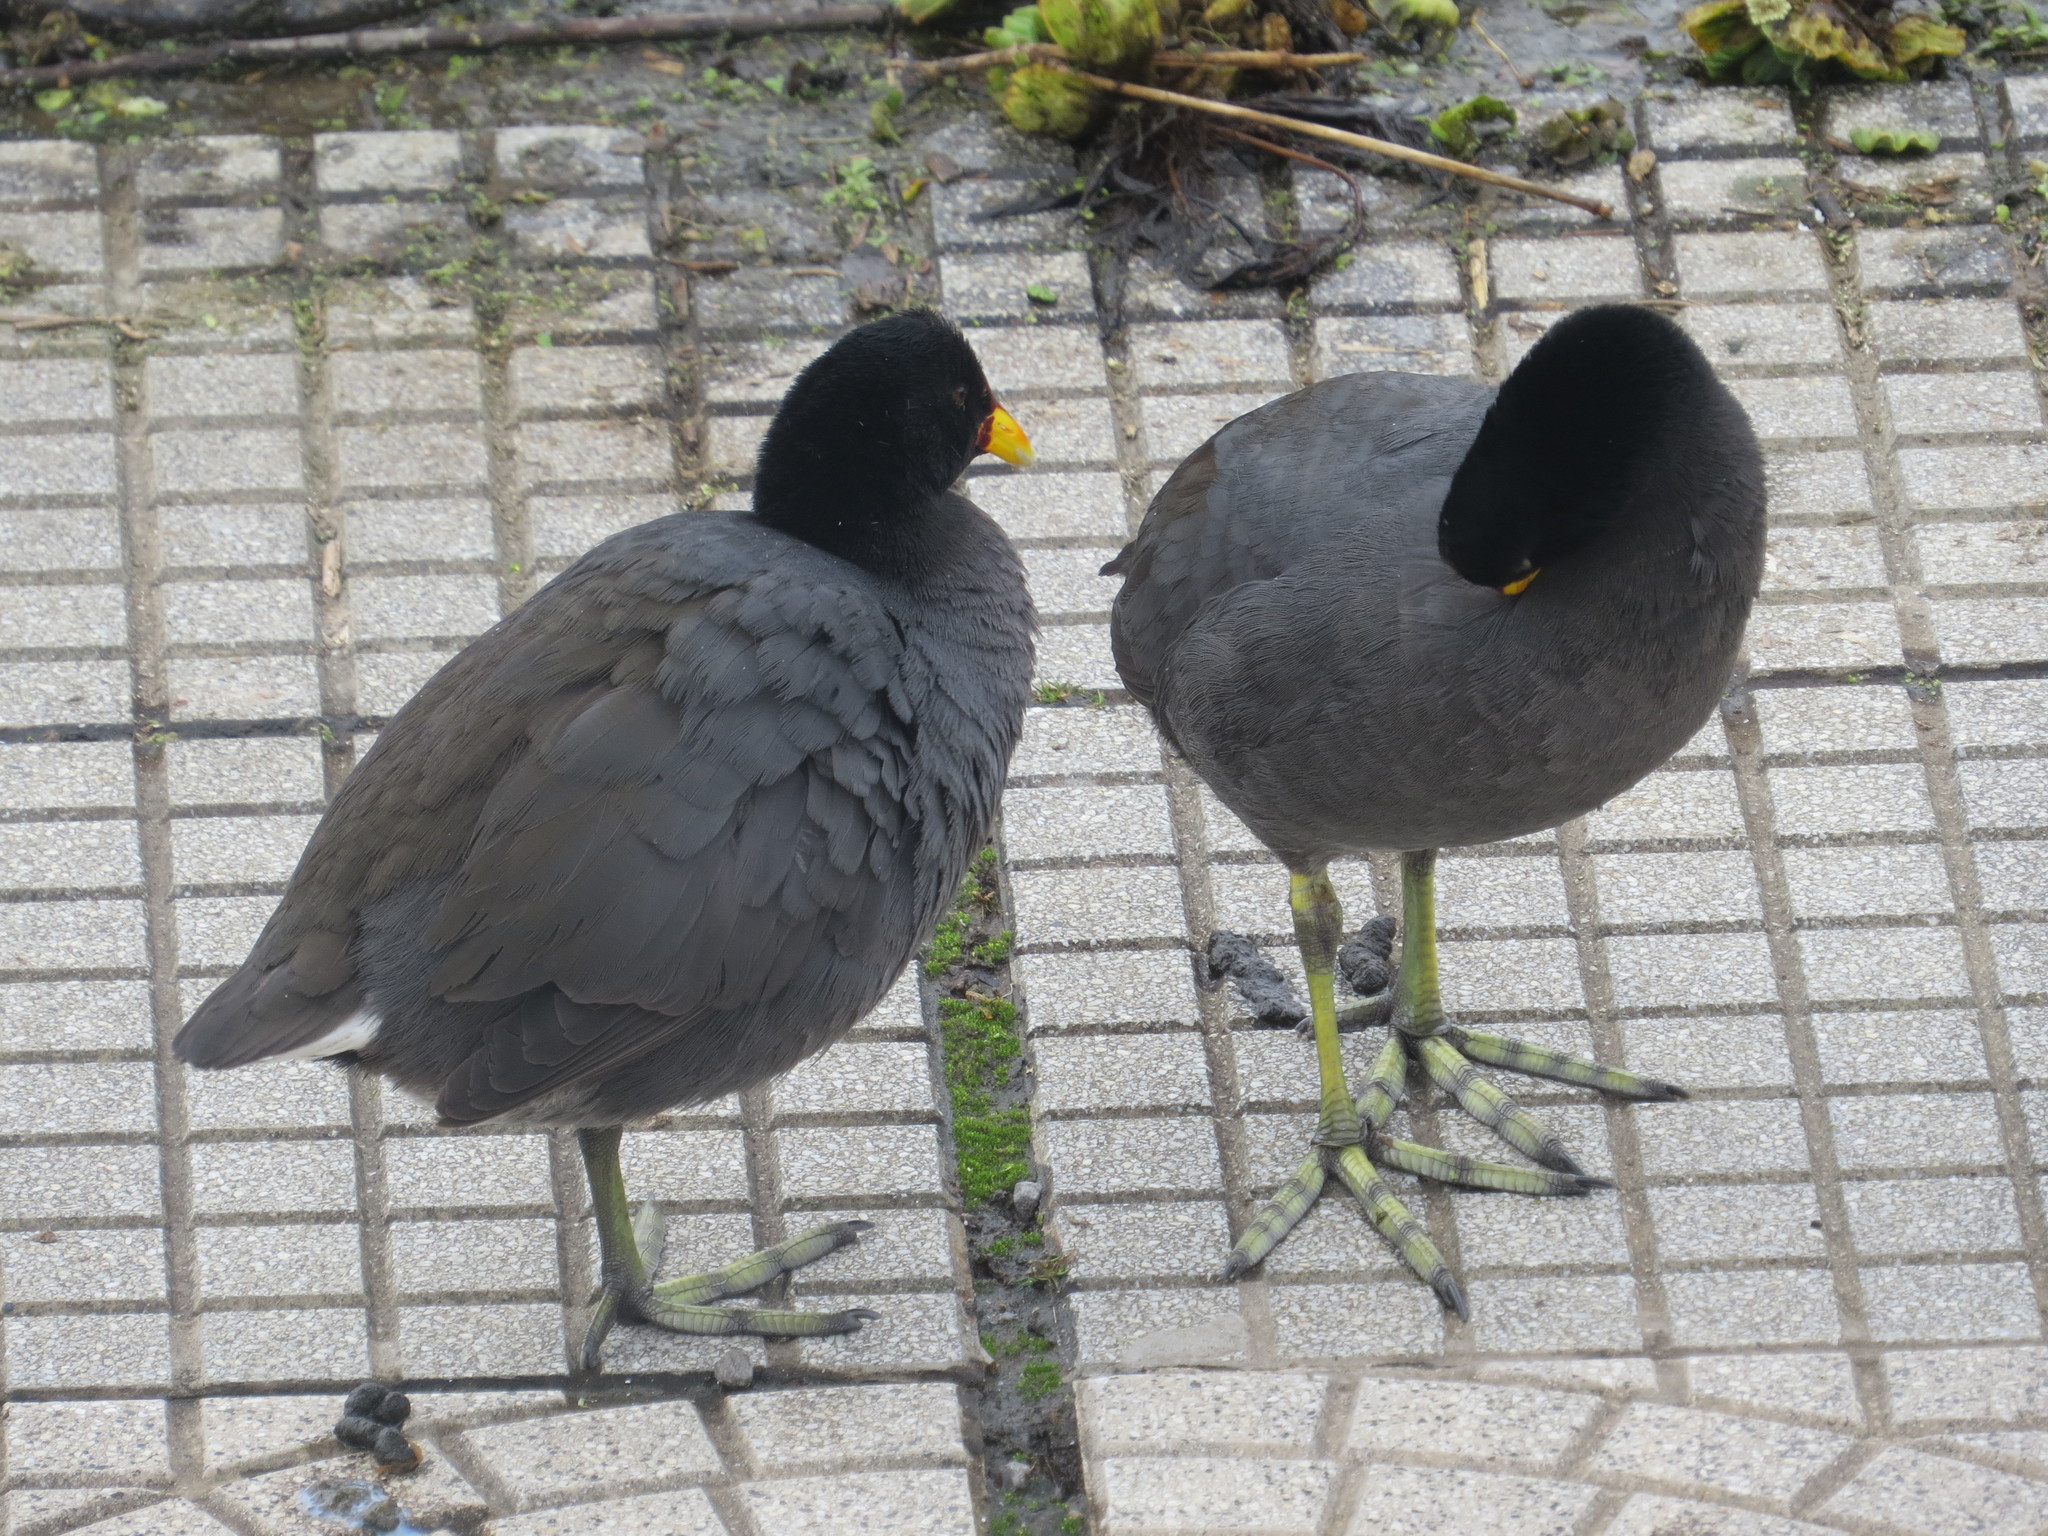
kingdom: Animalia
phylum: Chordata
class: Aves
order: Gruiformes
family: Rallidae
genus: Fulica
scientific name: Fulica rufifrons
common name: Red-fronted coot
